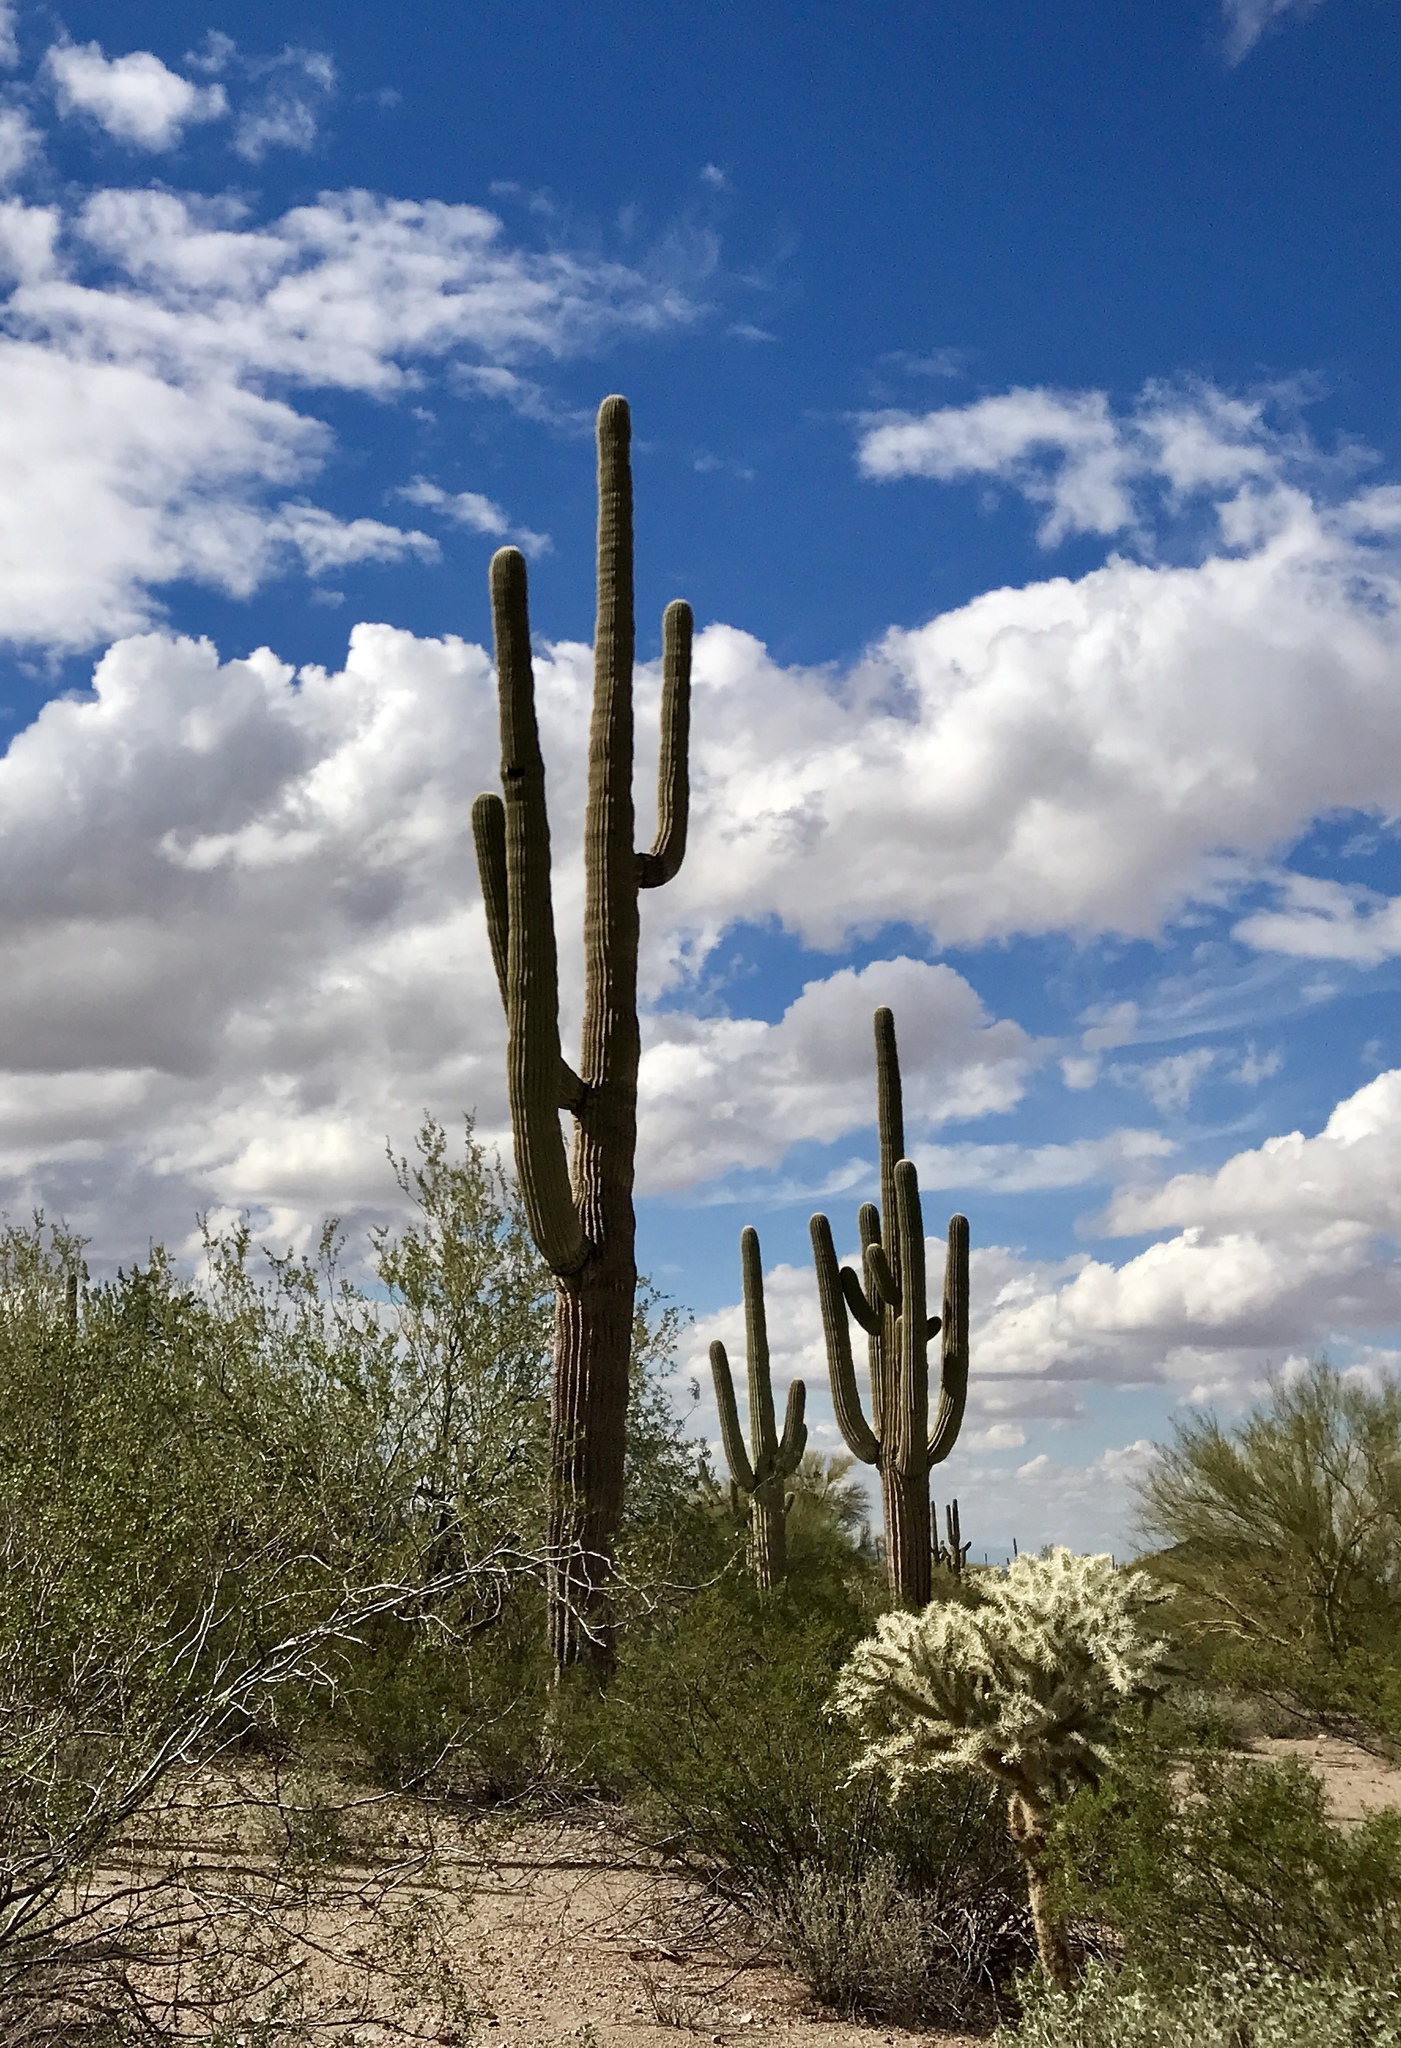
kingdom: Plantae
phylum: Tracheophyta
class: Magnoliopsida
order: Caryophyllales
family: Cactaceae
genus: Carnegiea
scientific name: Carnegiea gigantea
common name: Saguaro
